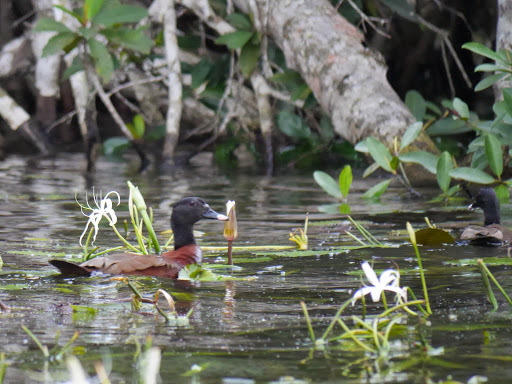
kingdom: Animalia
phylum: Chordata
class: Aves
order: Anseriformes
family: Anatidae
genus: Pteronetta
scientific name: Pteronetta hartlaubii
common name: Hartlaub's duck
